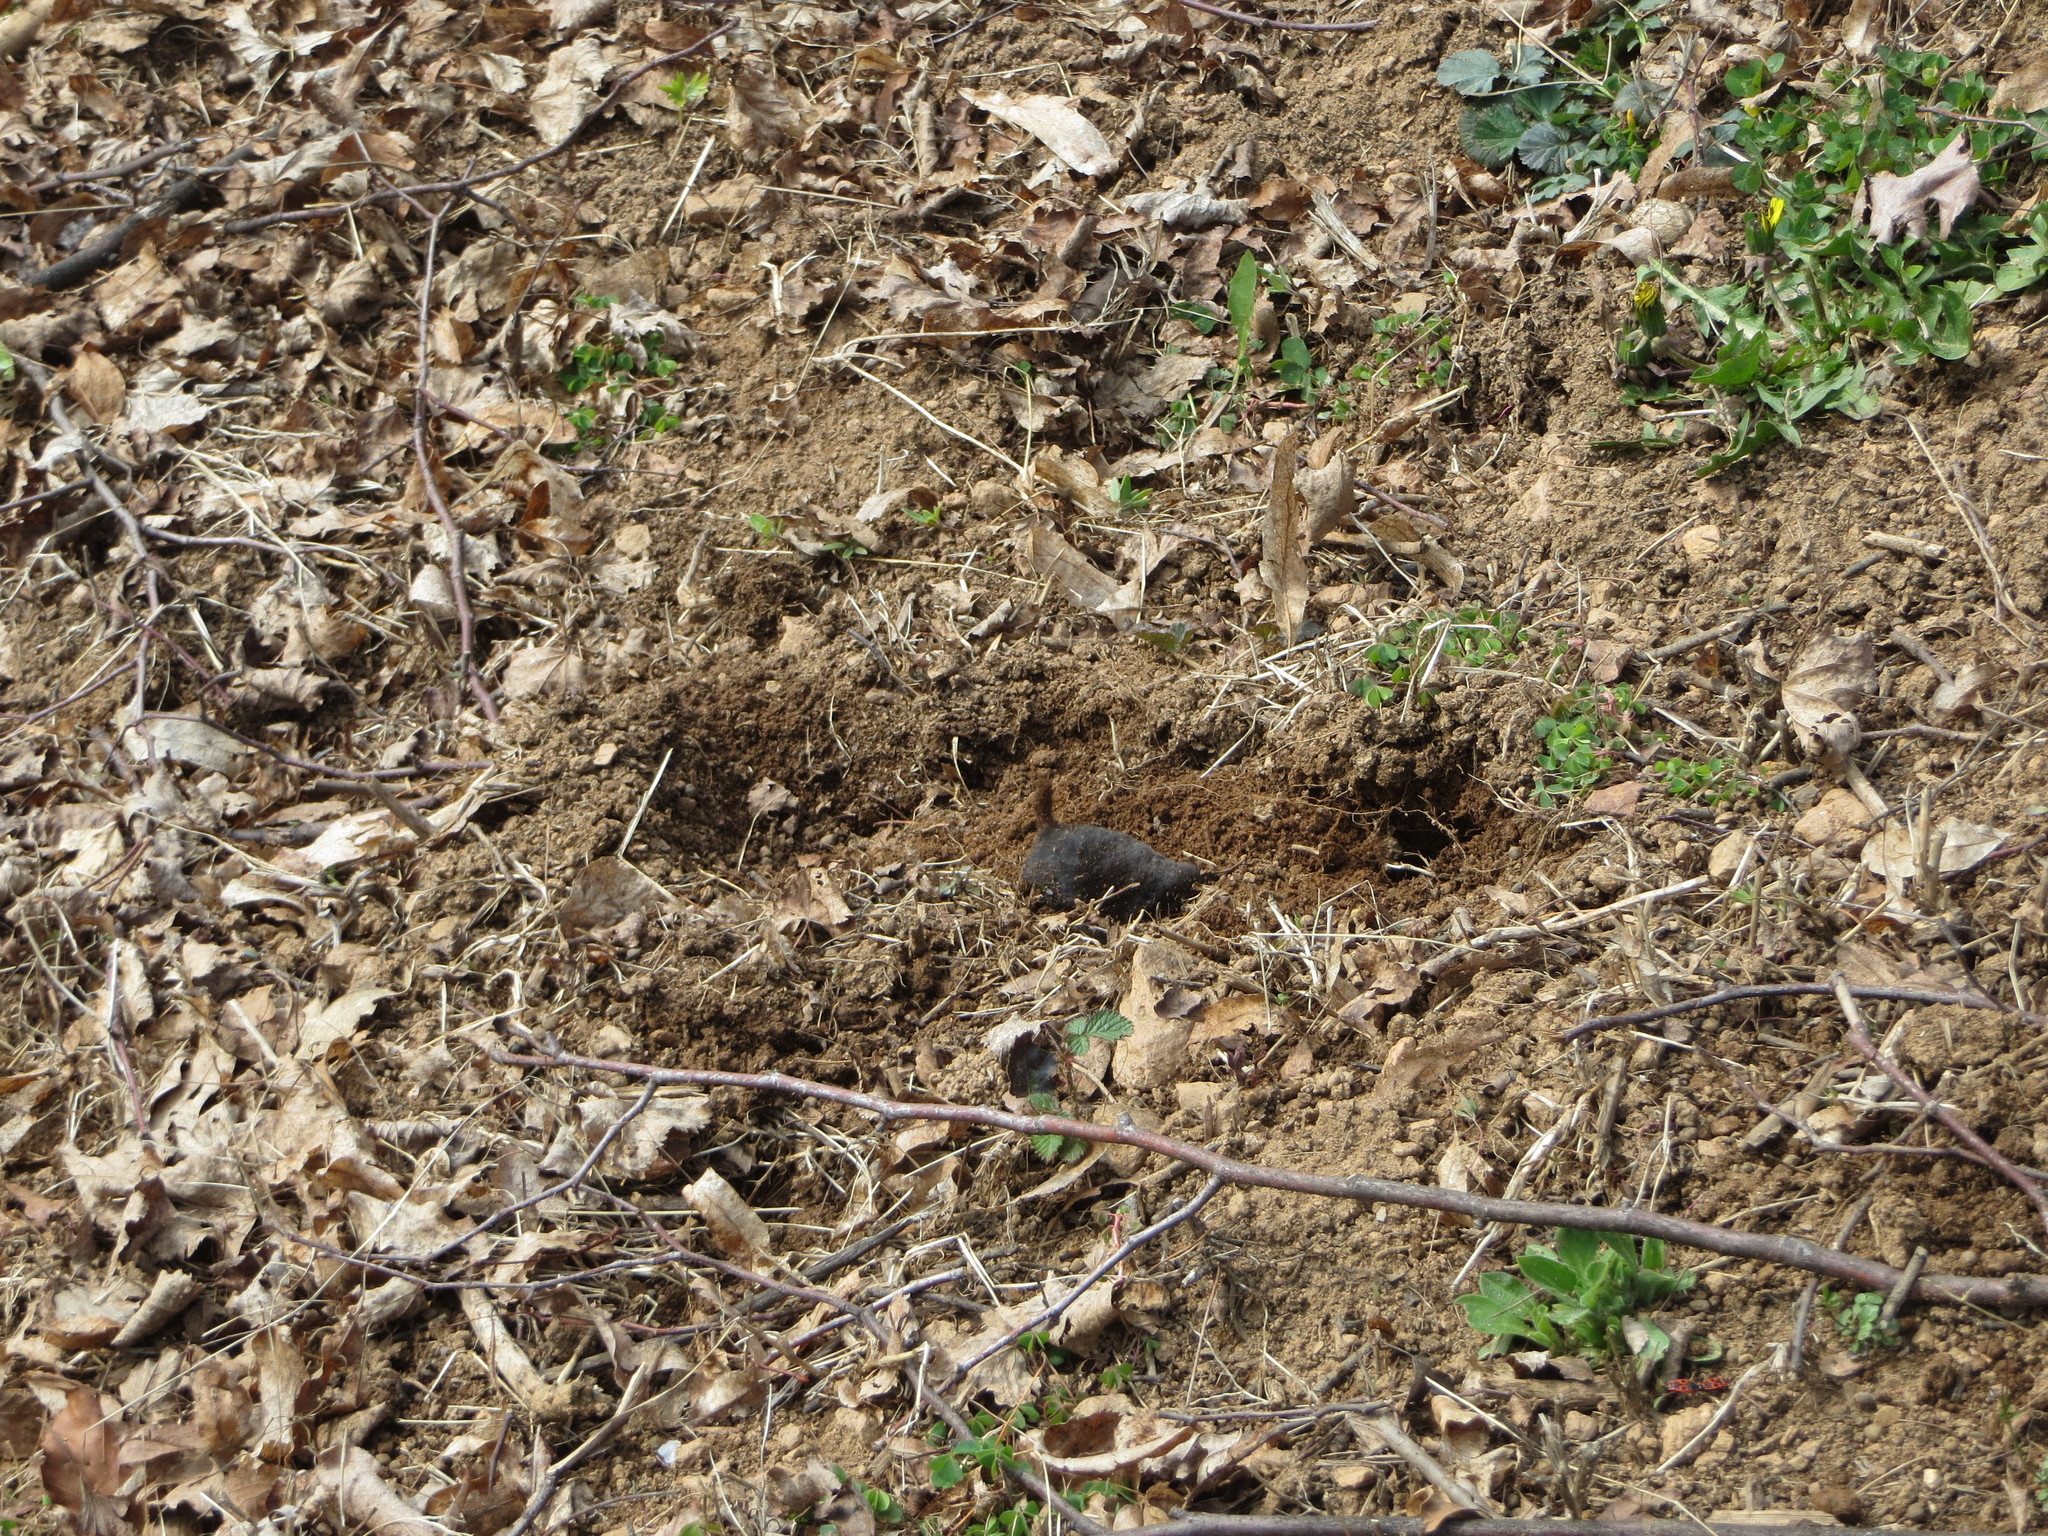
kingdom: Animalia
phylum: Chordata
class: Mammalia
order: Soricomorpha
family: Talpidae
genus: Talpa
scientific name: Talpa europaea
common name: European mole
